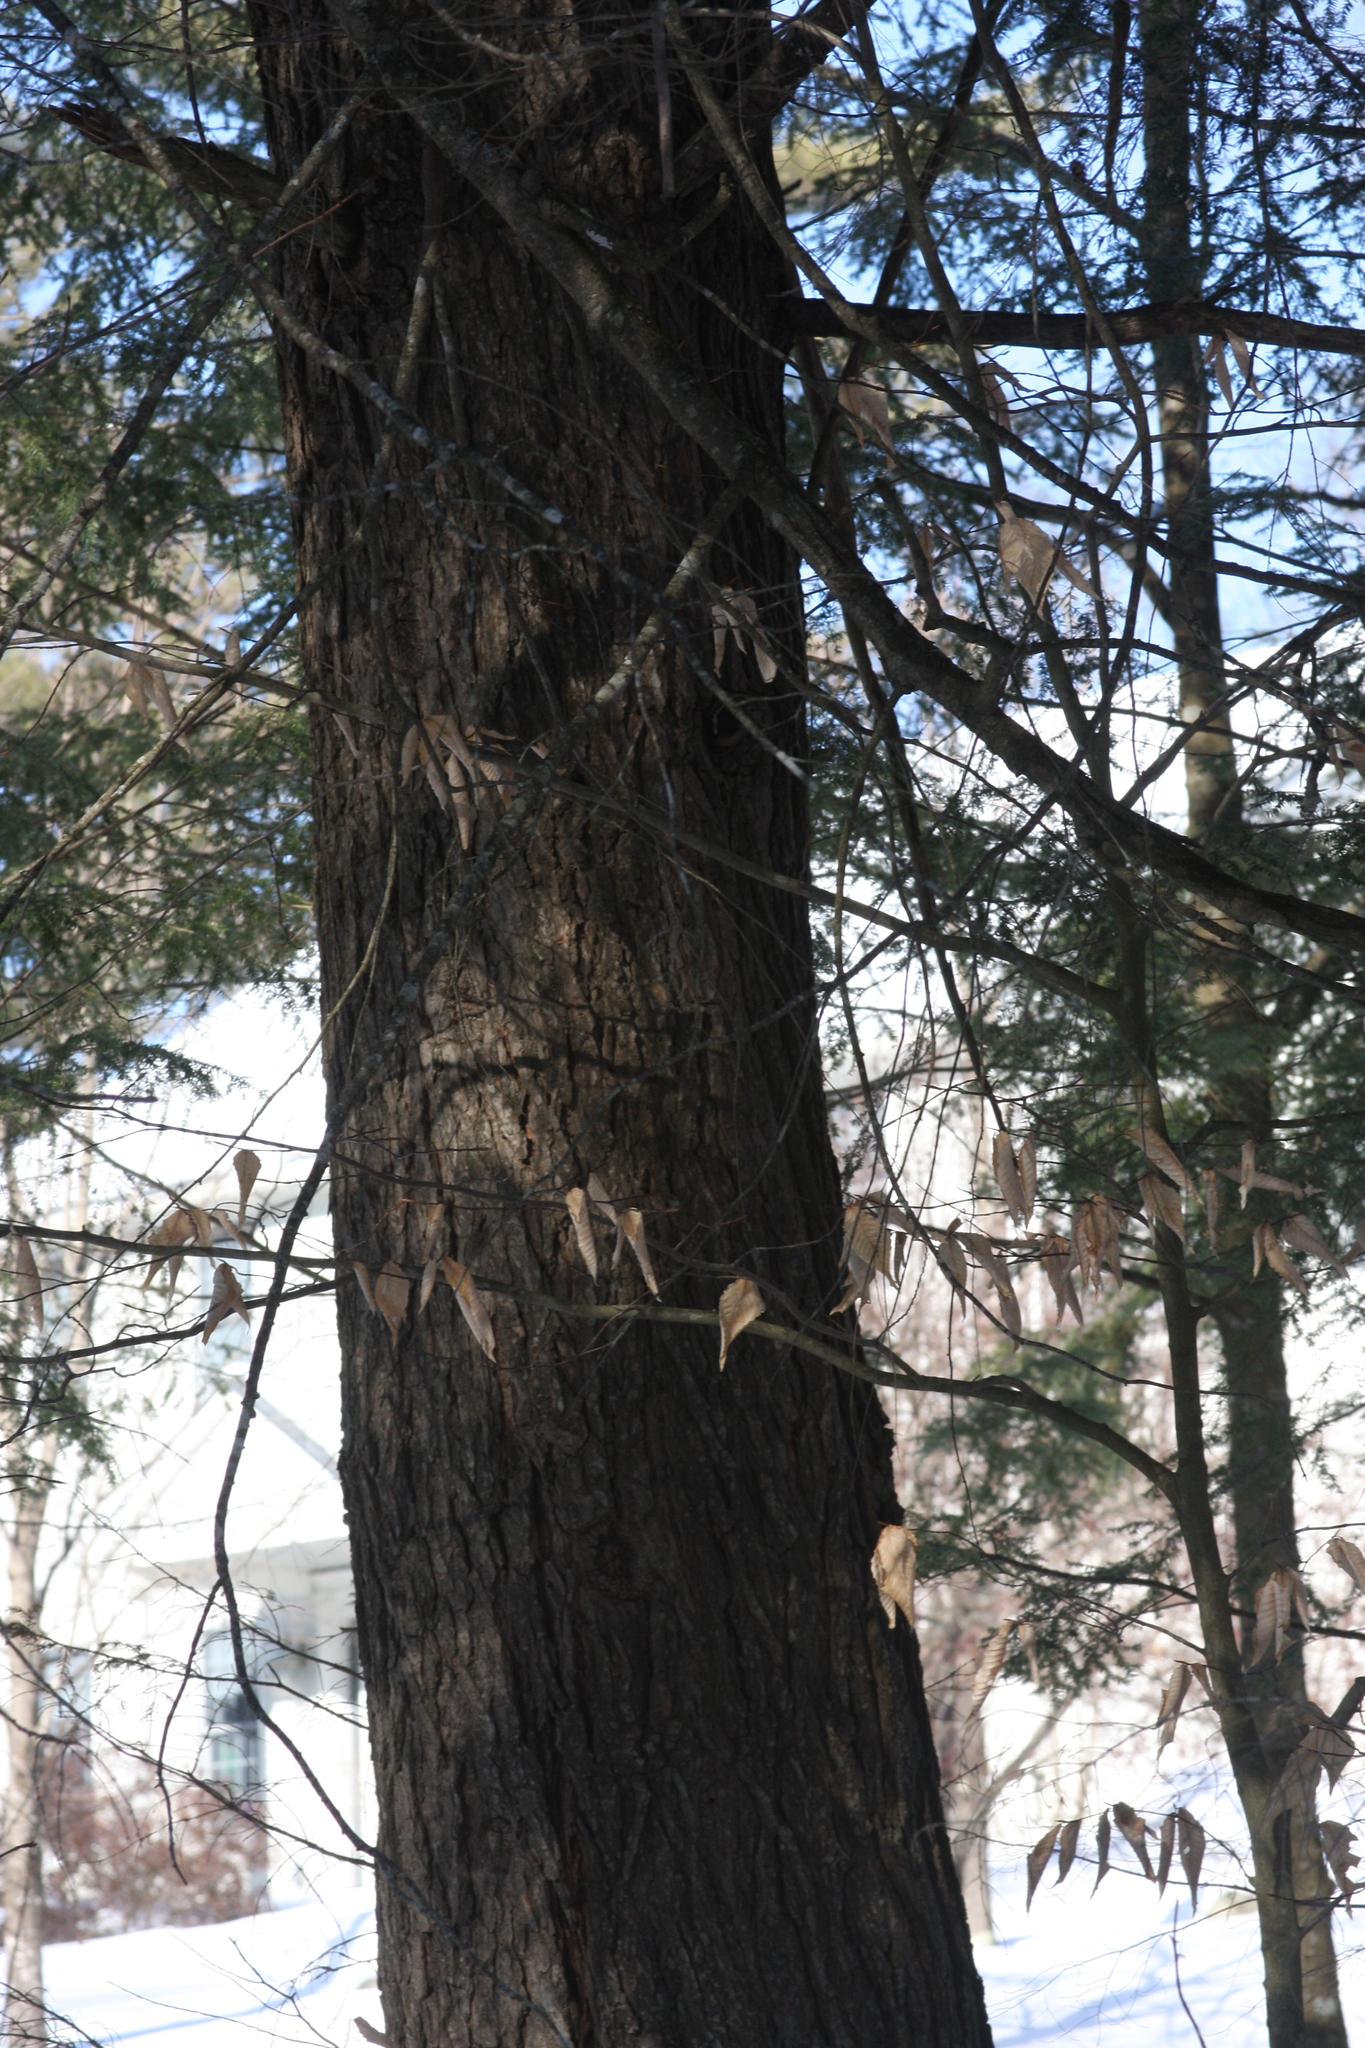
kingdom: Plantae
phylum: Tracheophyta
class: Pinopsida
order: Pinales
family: Pinaceae
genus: Tsuga
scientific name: Tsuga canadensis
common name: Eastern hemlock
